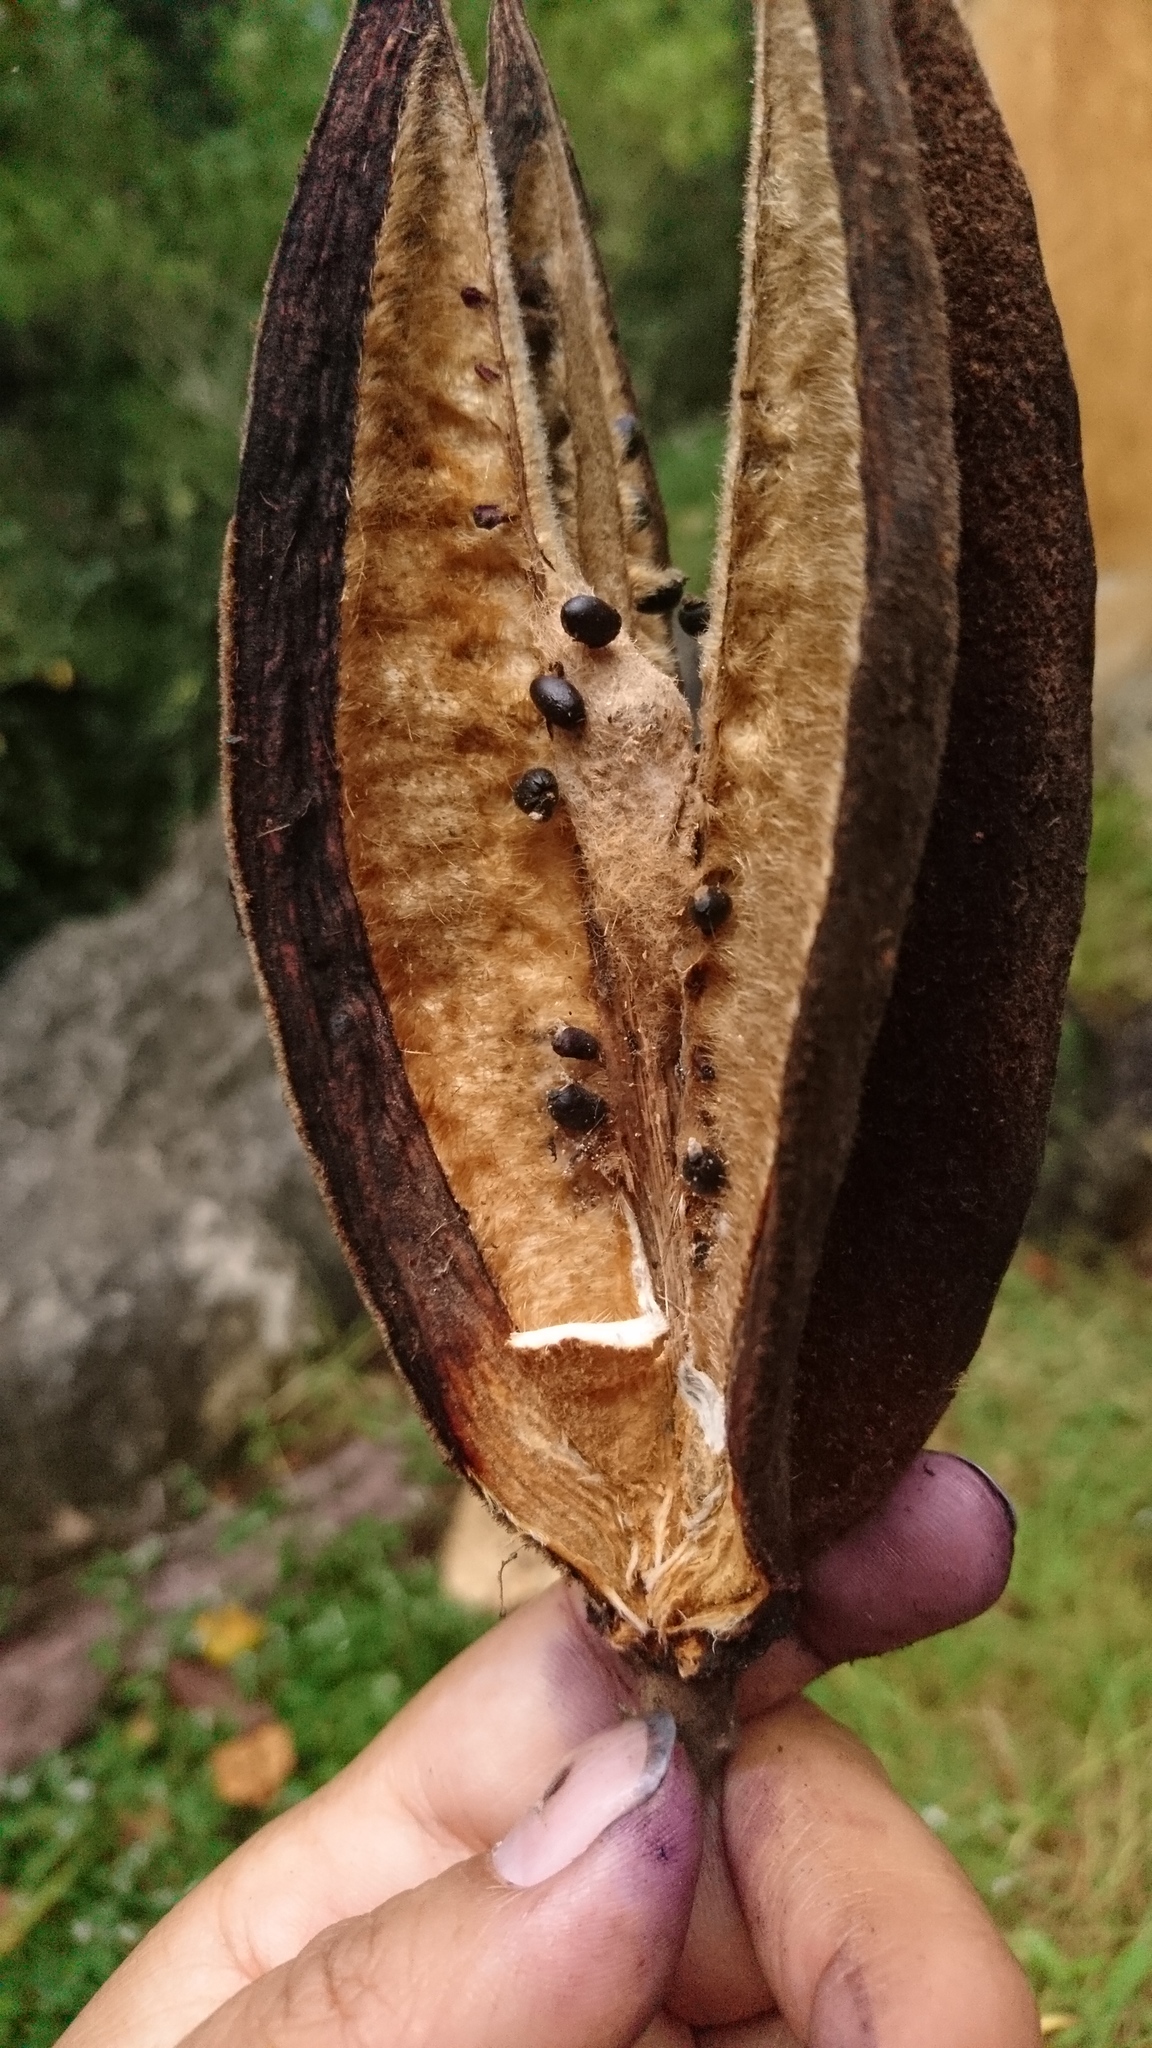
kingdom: Plantae
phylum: Tracheophyta
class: Magnoliopsida
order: Malvales
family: Malvaceae
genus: Chiranthodendron
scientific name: Chiranthodendron pentadactylon
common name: Mexican-hat-plant
